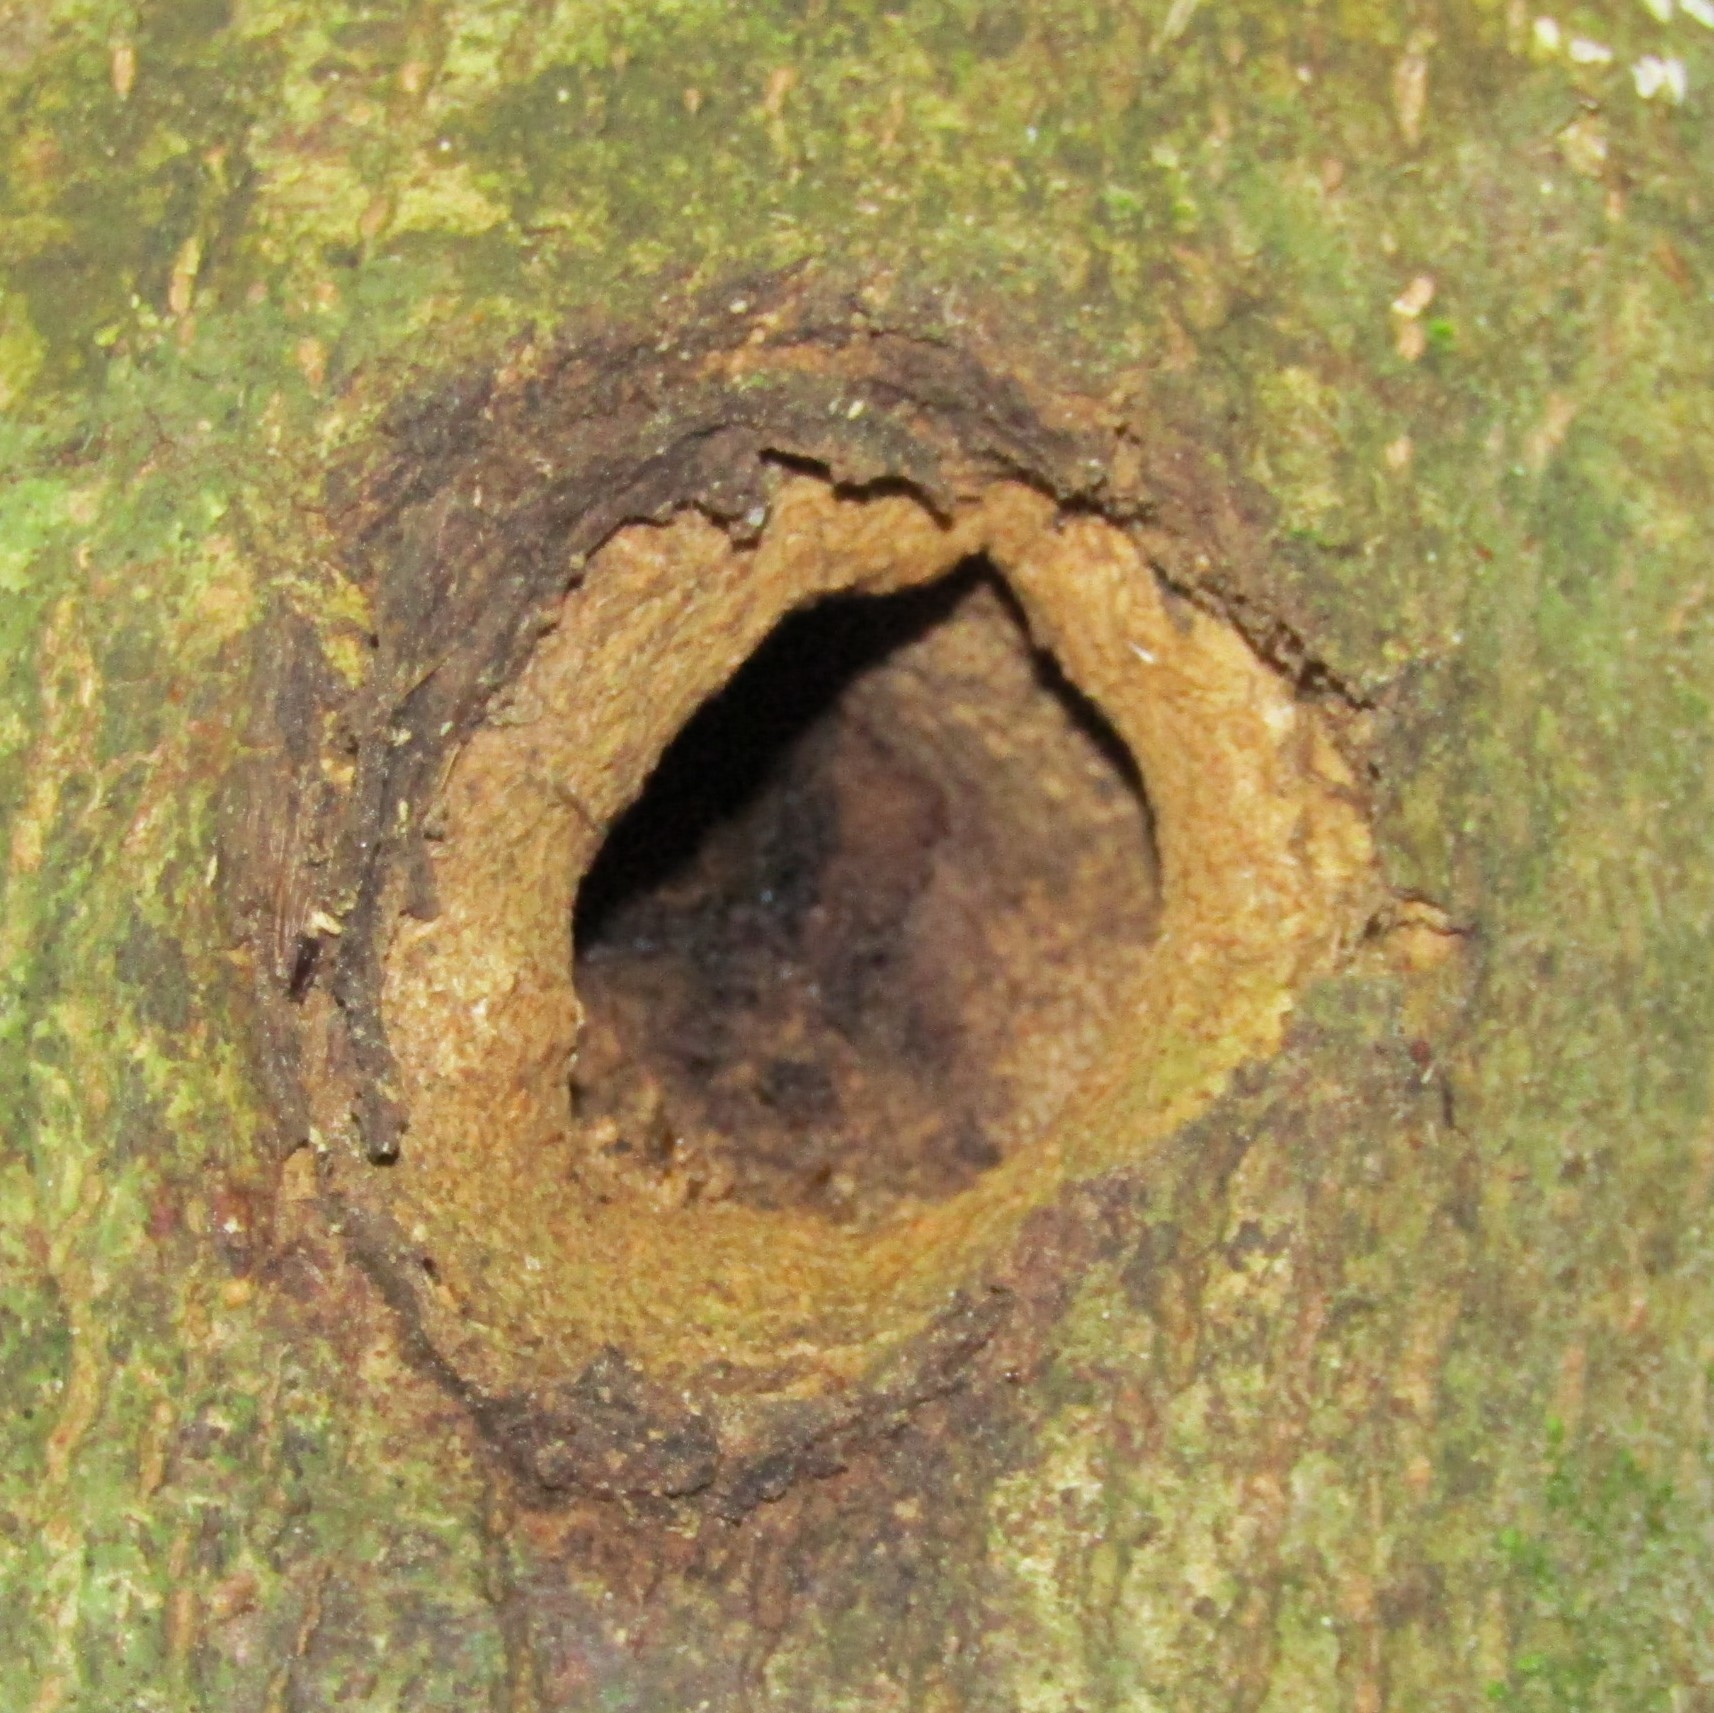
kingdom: Animalia
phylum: Arthropoda
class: Insecta
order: Lepidoptera
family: Hepialidae
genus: Aenetus
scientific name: Aenetus virescens
